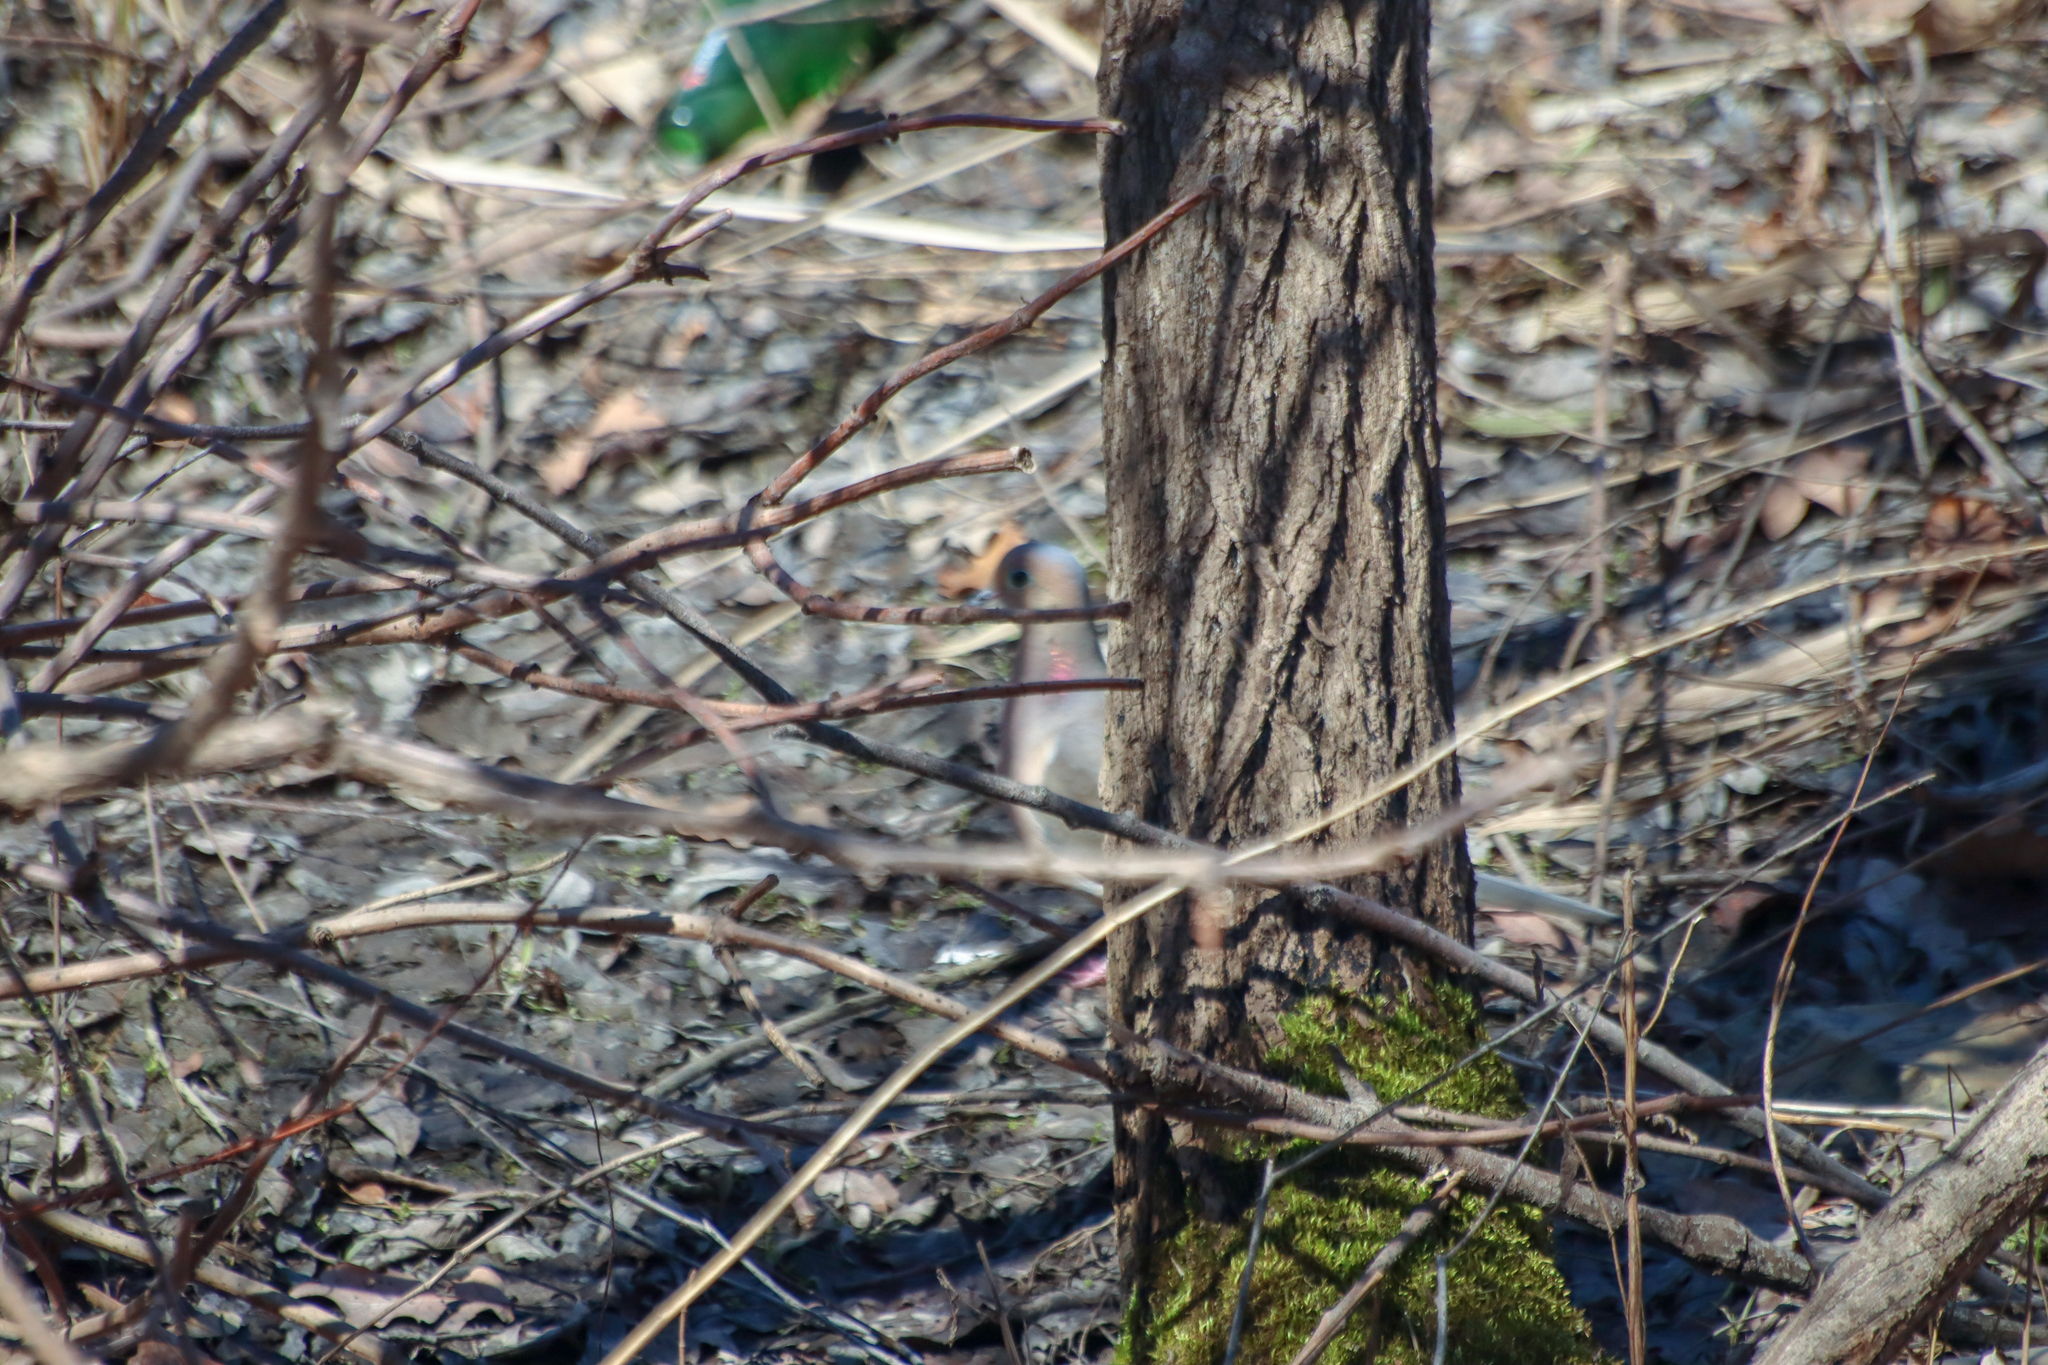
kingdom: Animalia
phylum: Chordata
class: Aves
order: Columbiformes
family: Columbidae
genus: Zenaida
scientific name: Zenaida macroura
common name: Mourning dove
